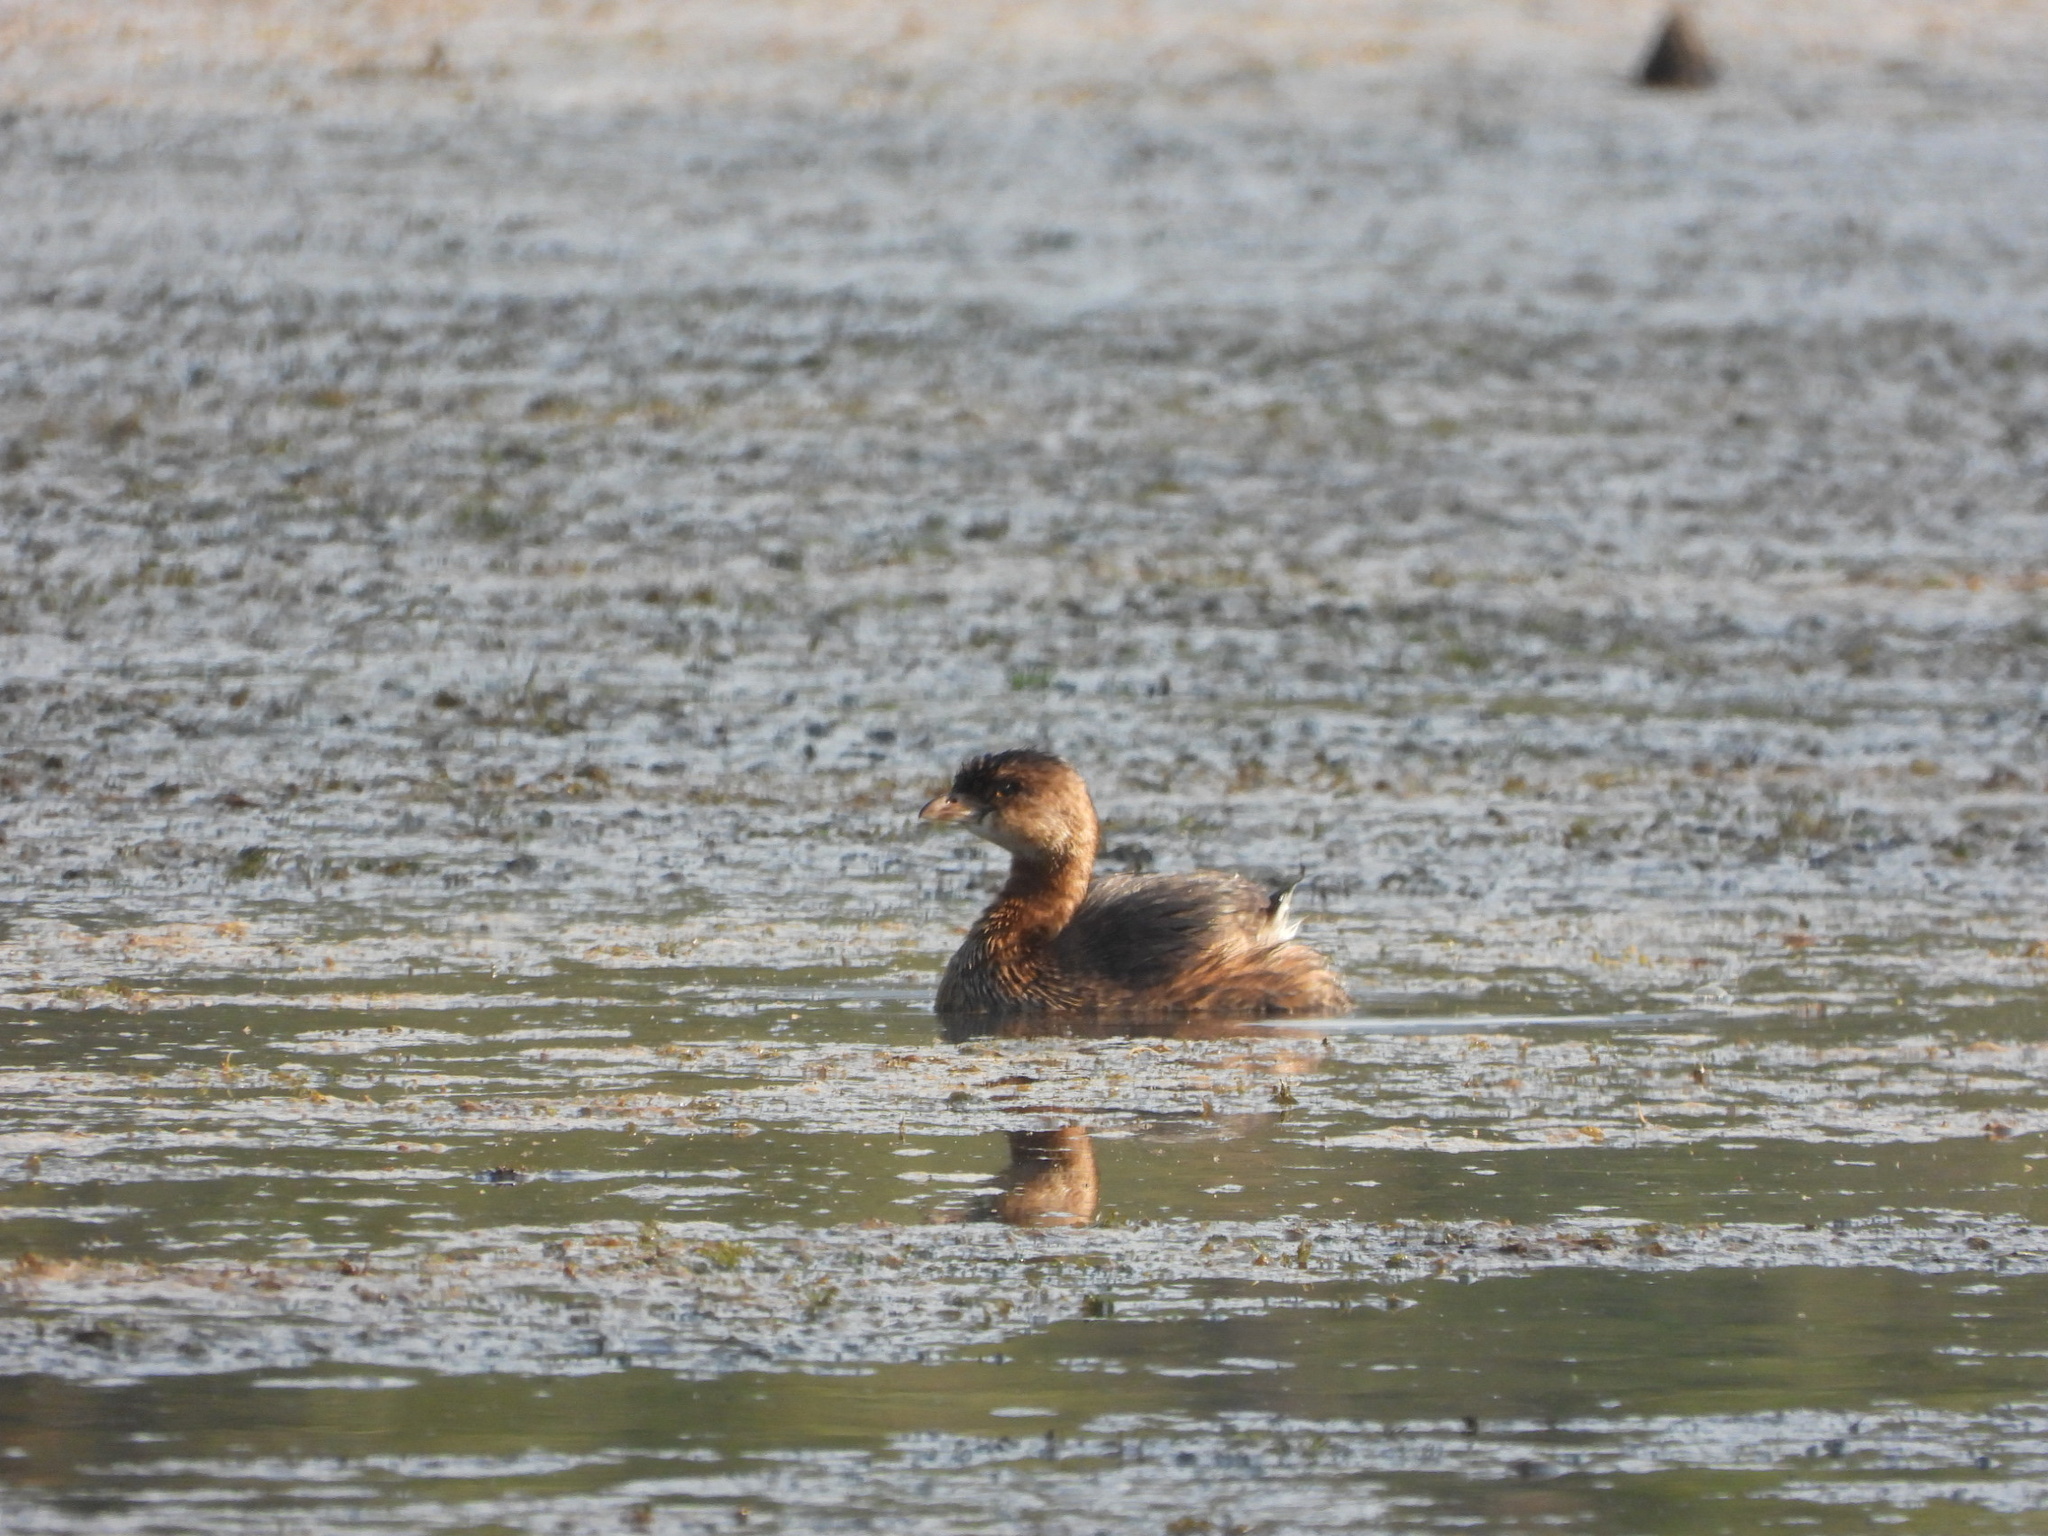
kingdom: Animalia
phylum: Chordata
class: Aves
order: Podicipediformes
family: Podicipedidae
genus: Podilymbus
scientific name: Podilymbus podiceps
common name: Pied-billed grebe
